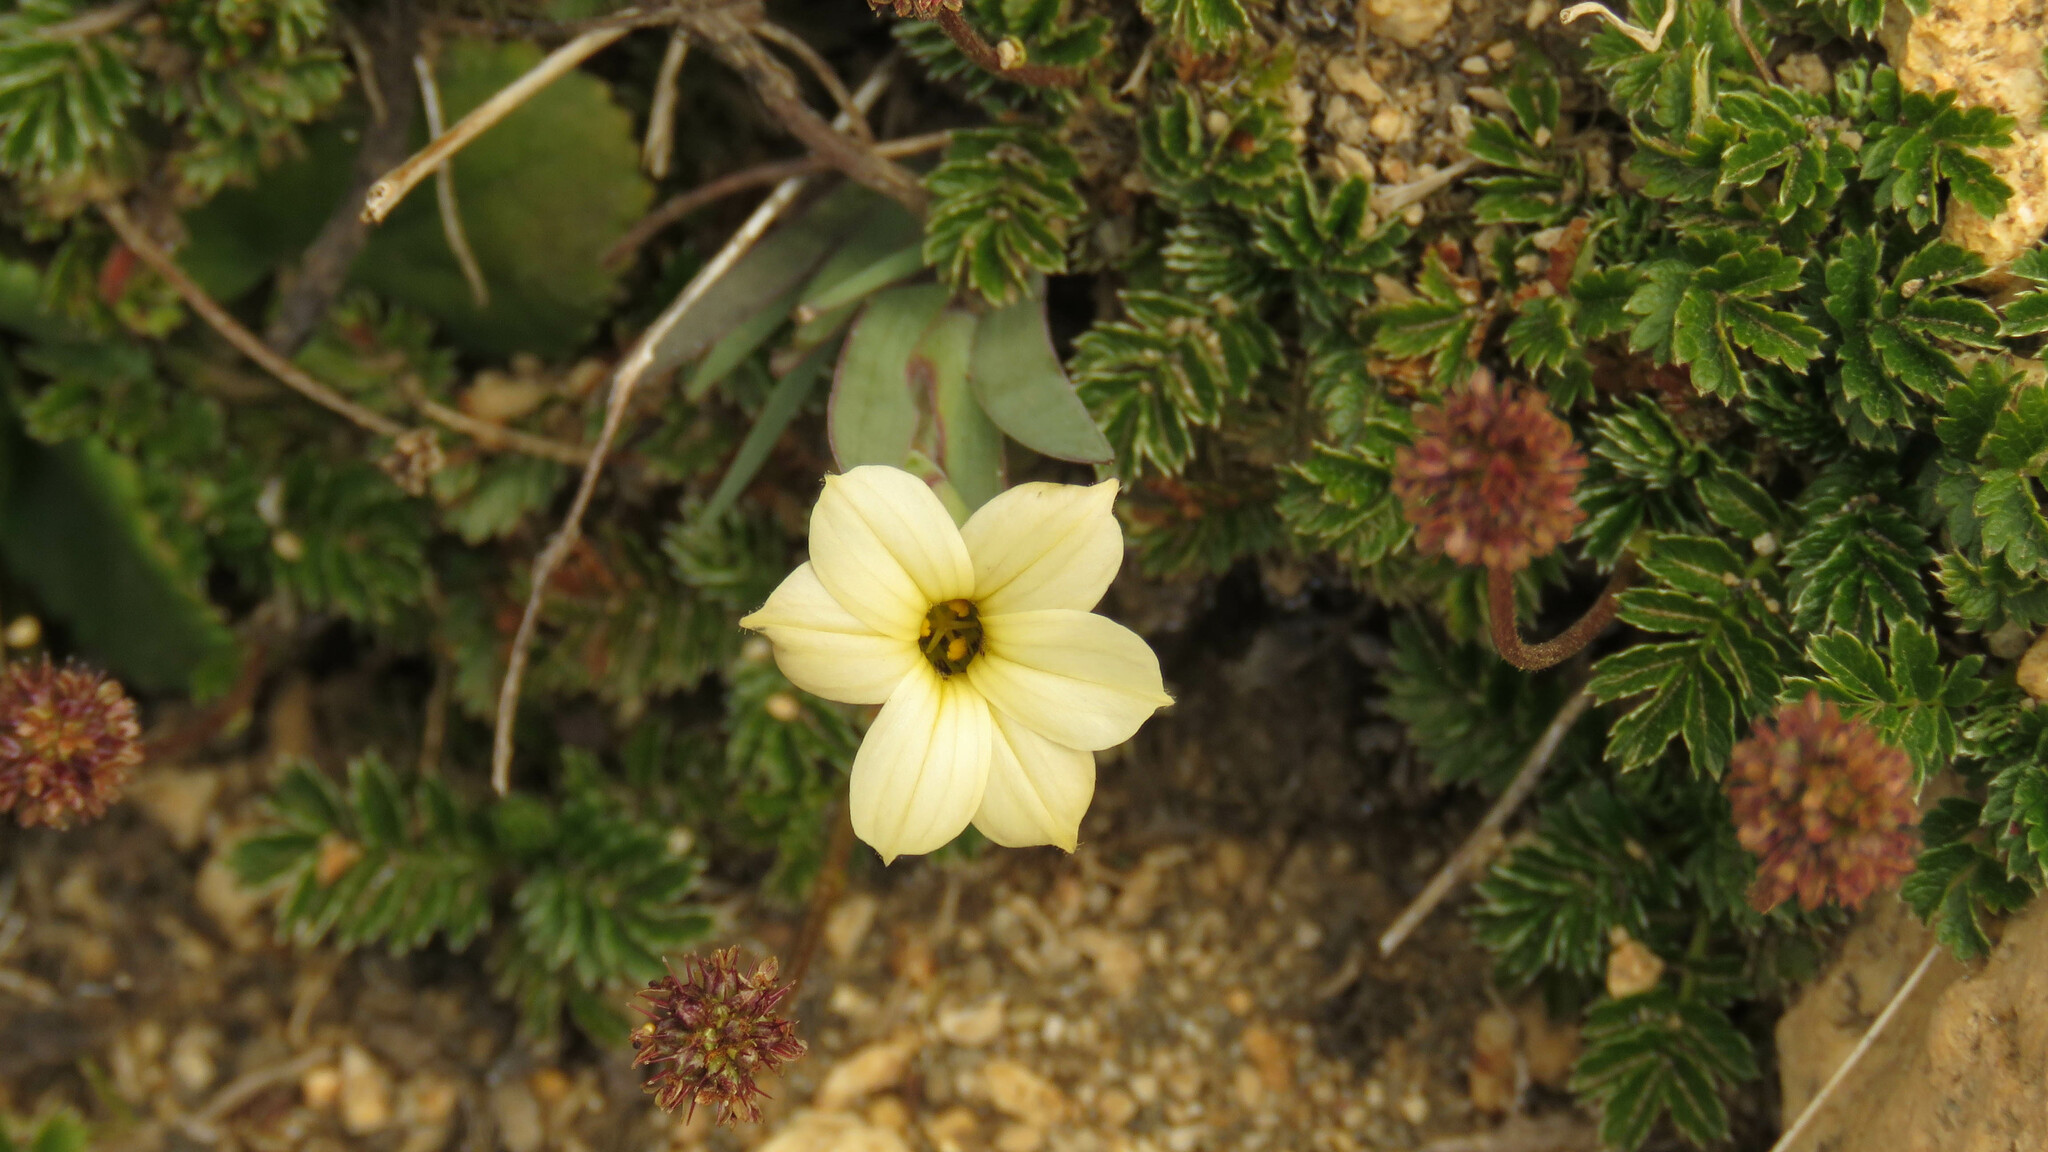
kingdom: Plantae
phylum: Tracheophyta
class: Liliopsida
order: Asparagales
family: Iridaceae
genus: Sisyrinchium
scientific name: Sisyrinchium arenarium
